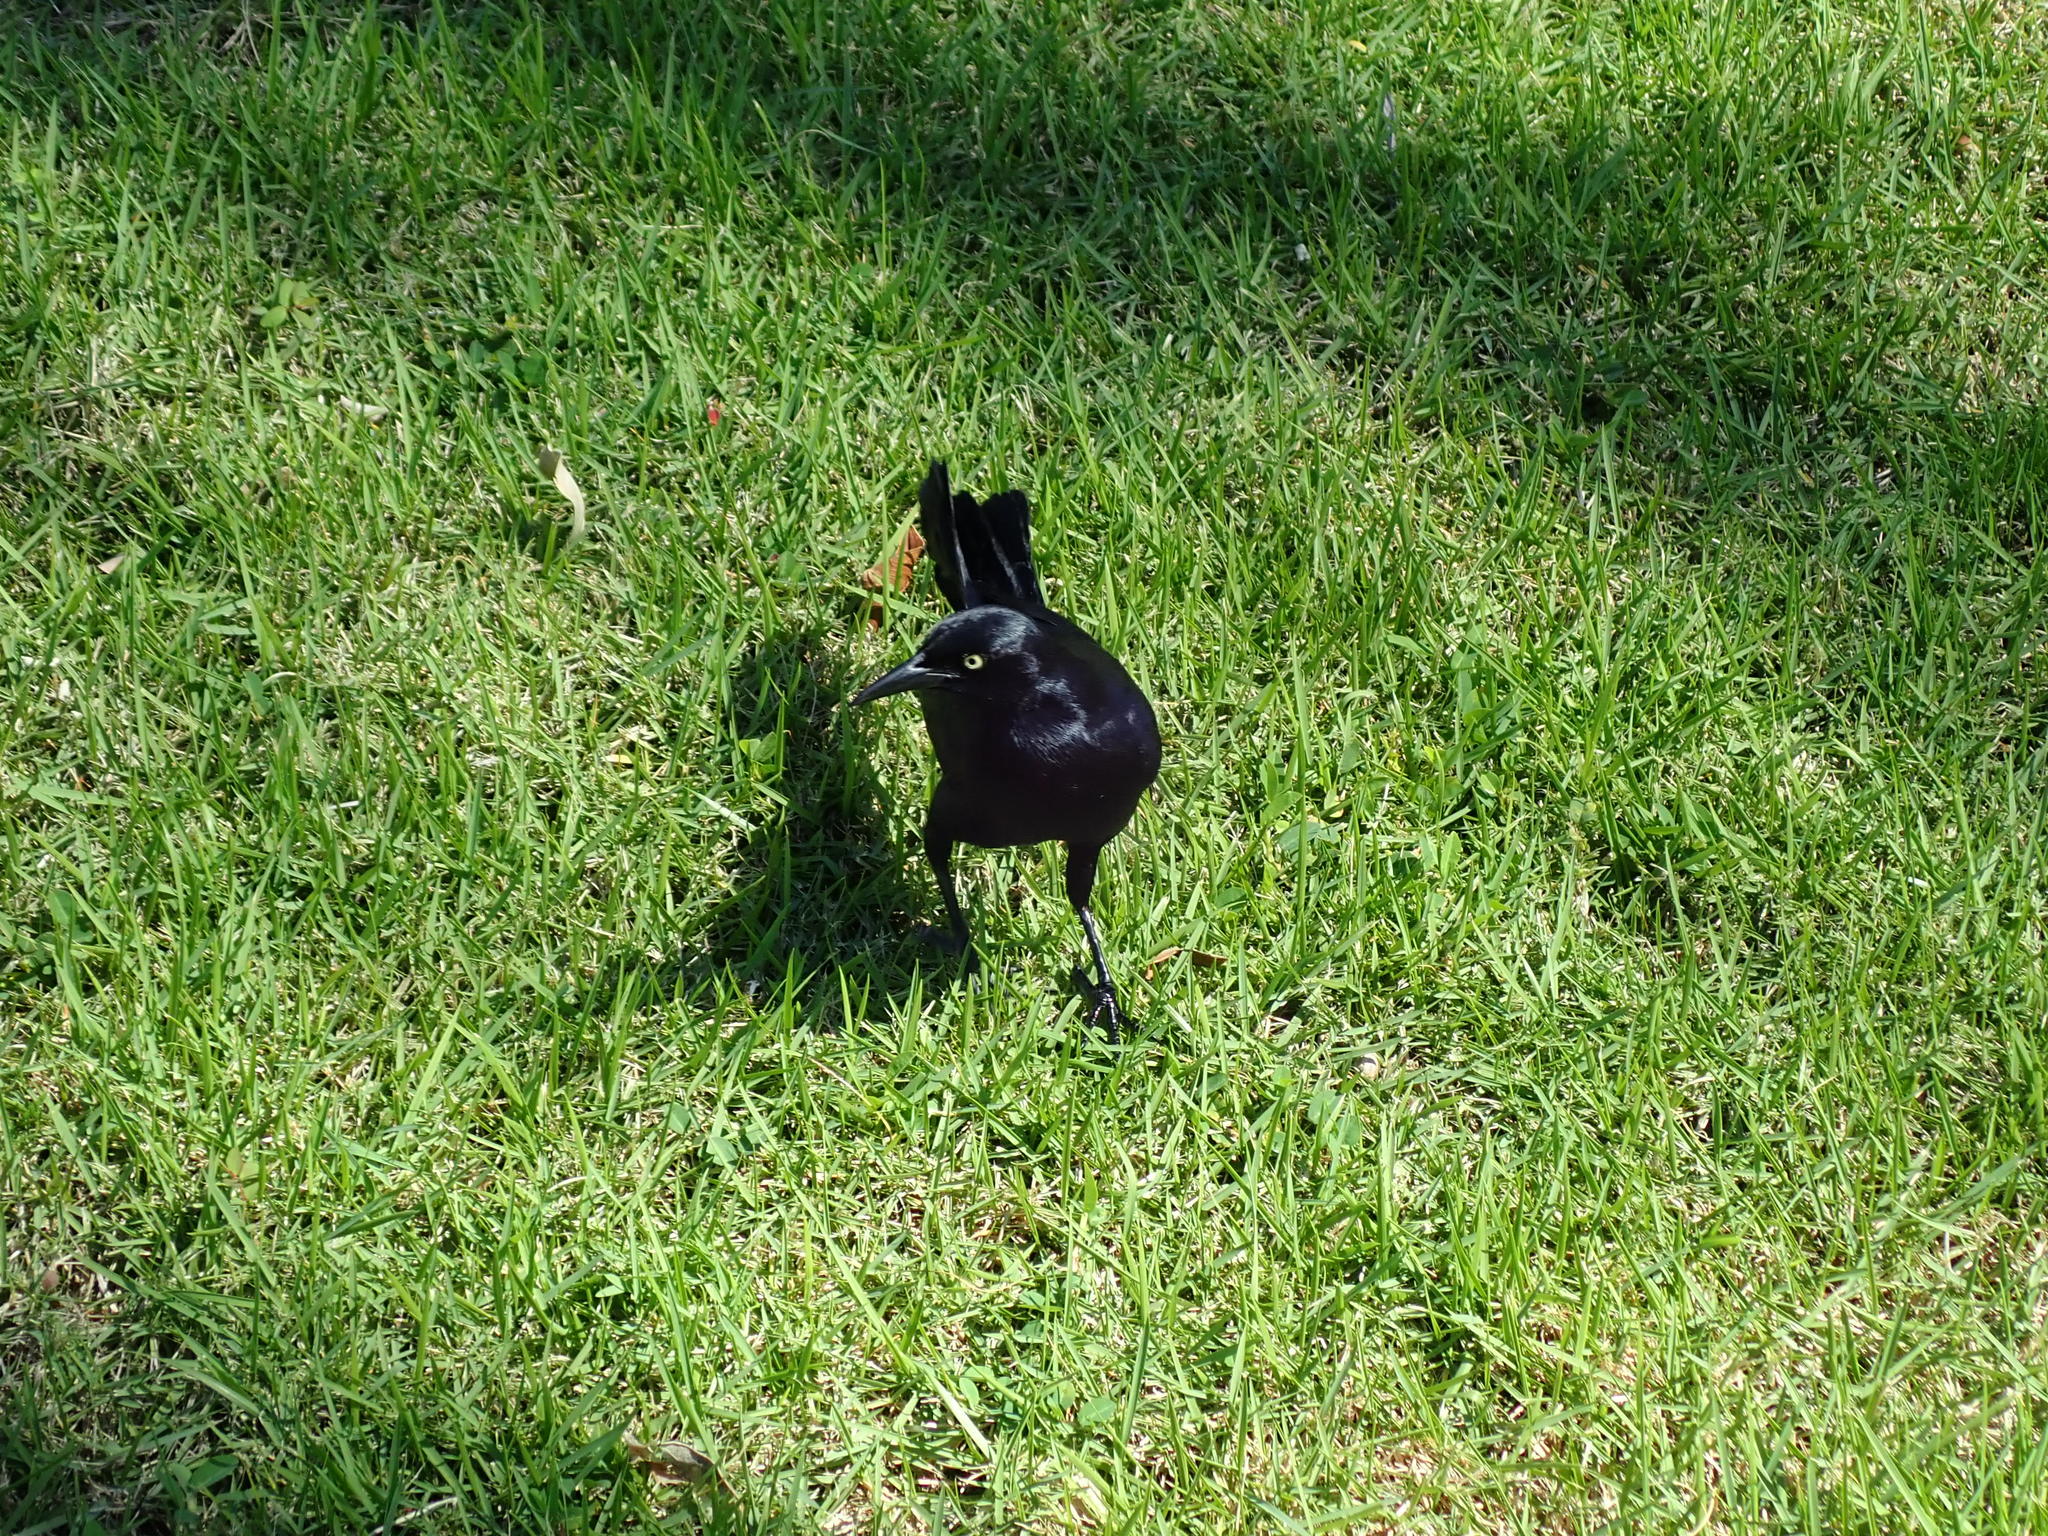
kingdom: Animalia
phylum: Chordata
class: Aves
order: Passeriformes
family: Icteridae
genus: Quiscalus
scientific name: Quiscalus niger
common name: Greater antillean grackle
